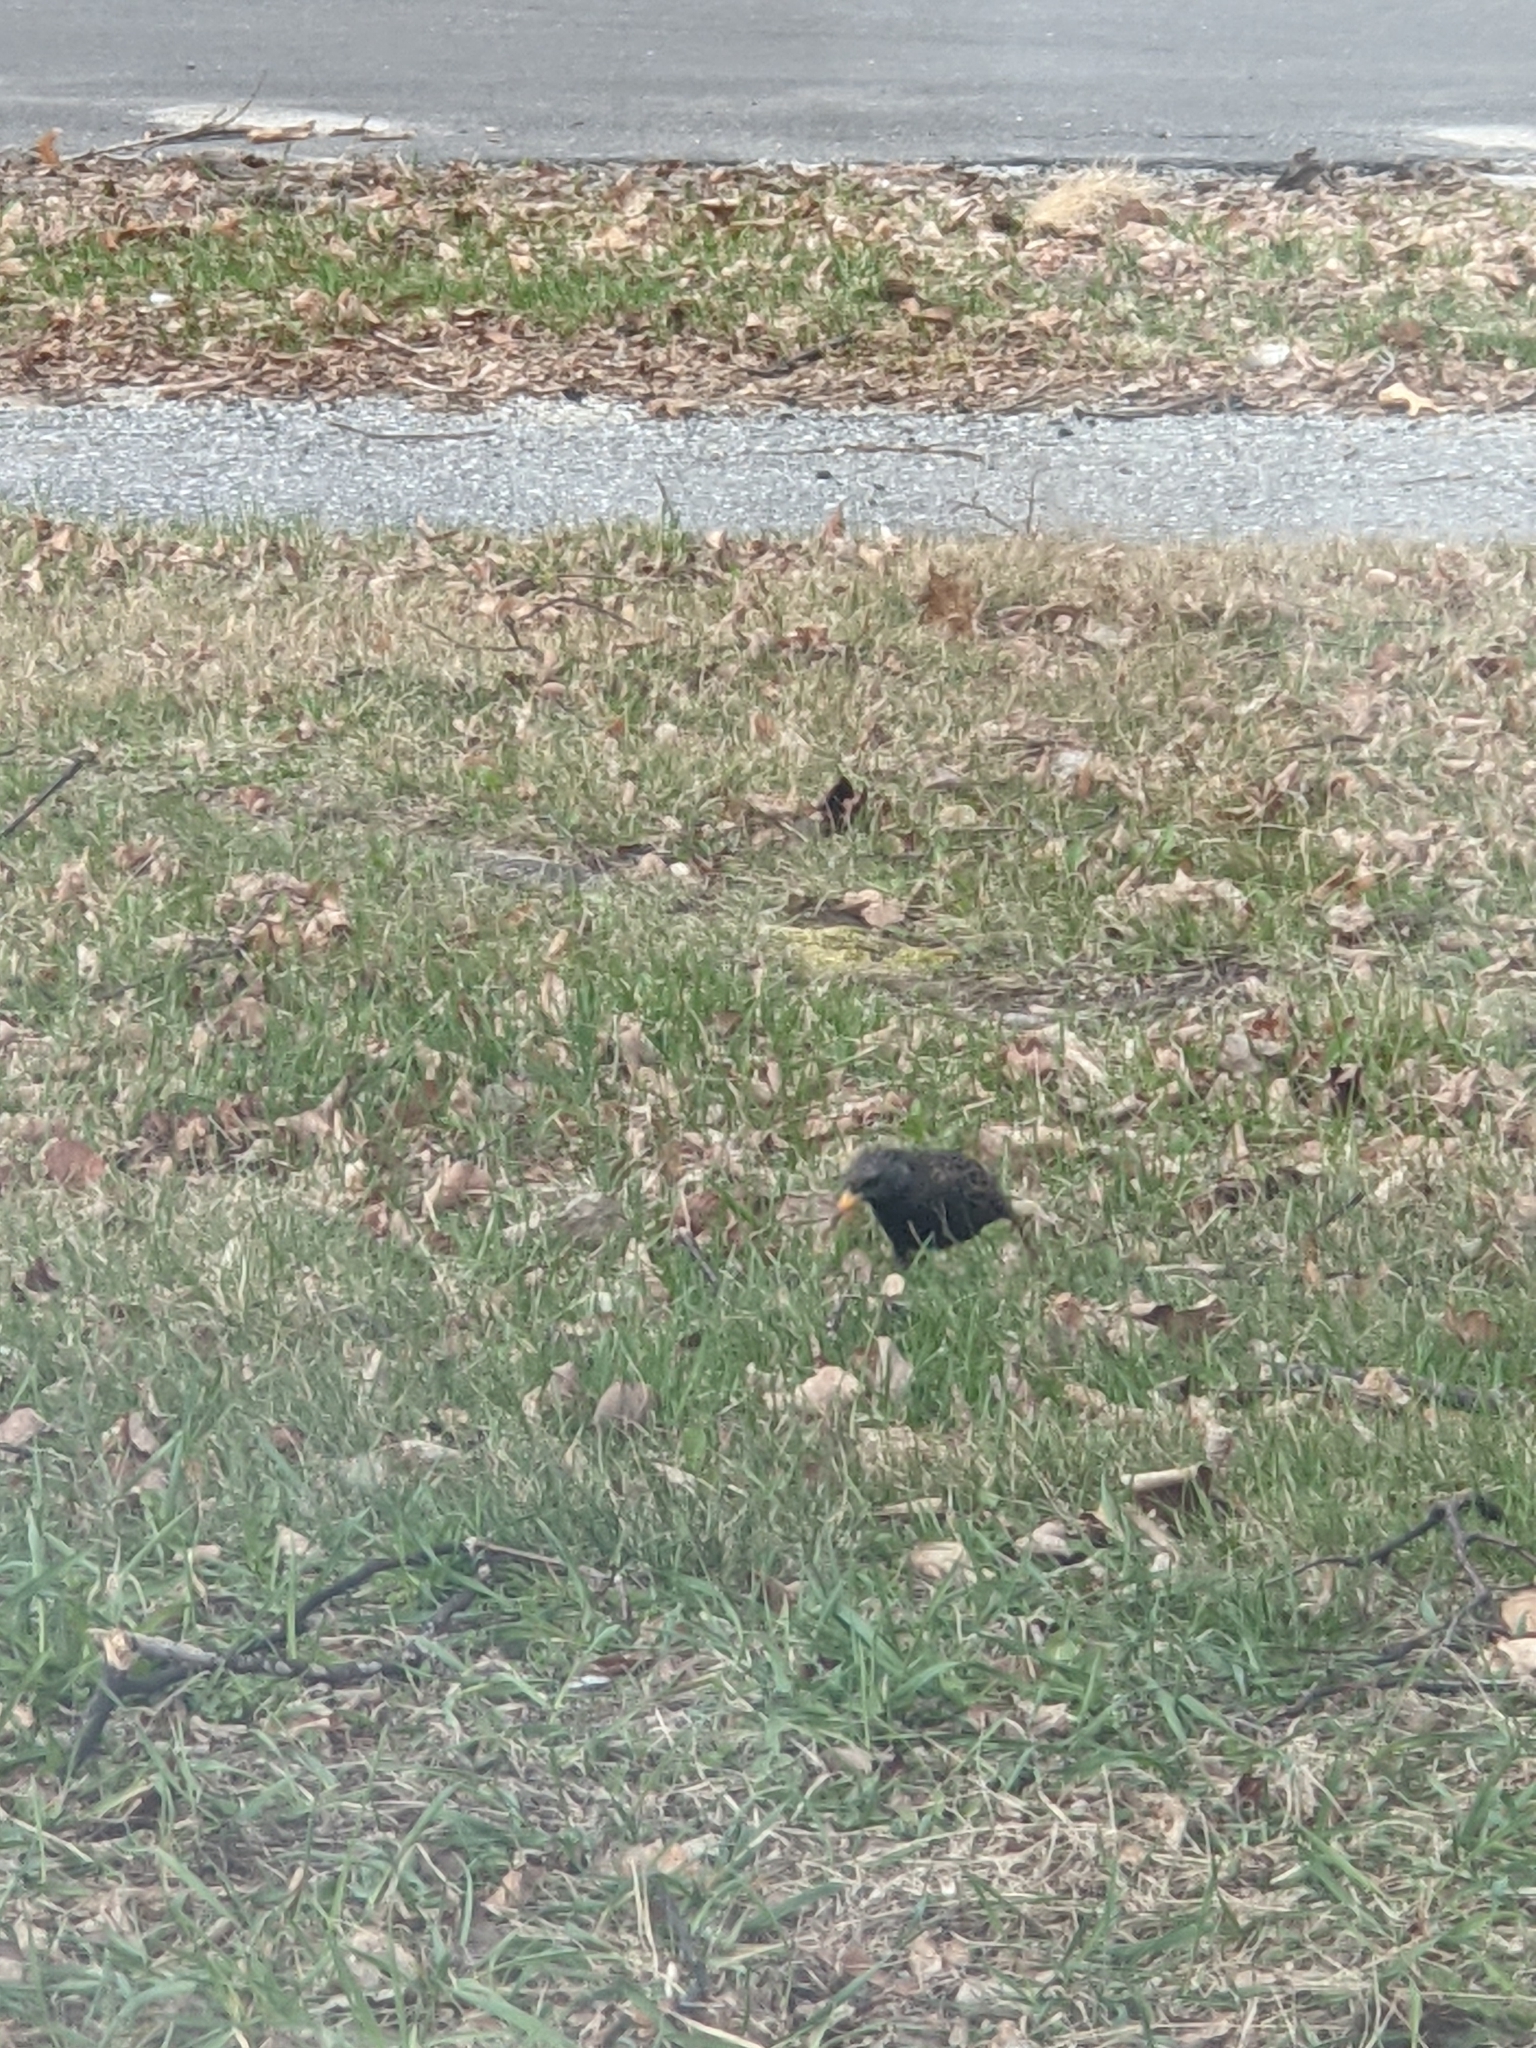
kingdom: Animalia
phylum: Chordata
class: Aves
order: Passeriformes
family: Sturnidae
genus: Sturnus
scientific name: Sturnus vulgaris
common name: Common starling
